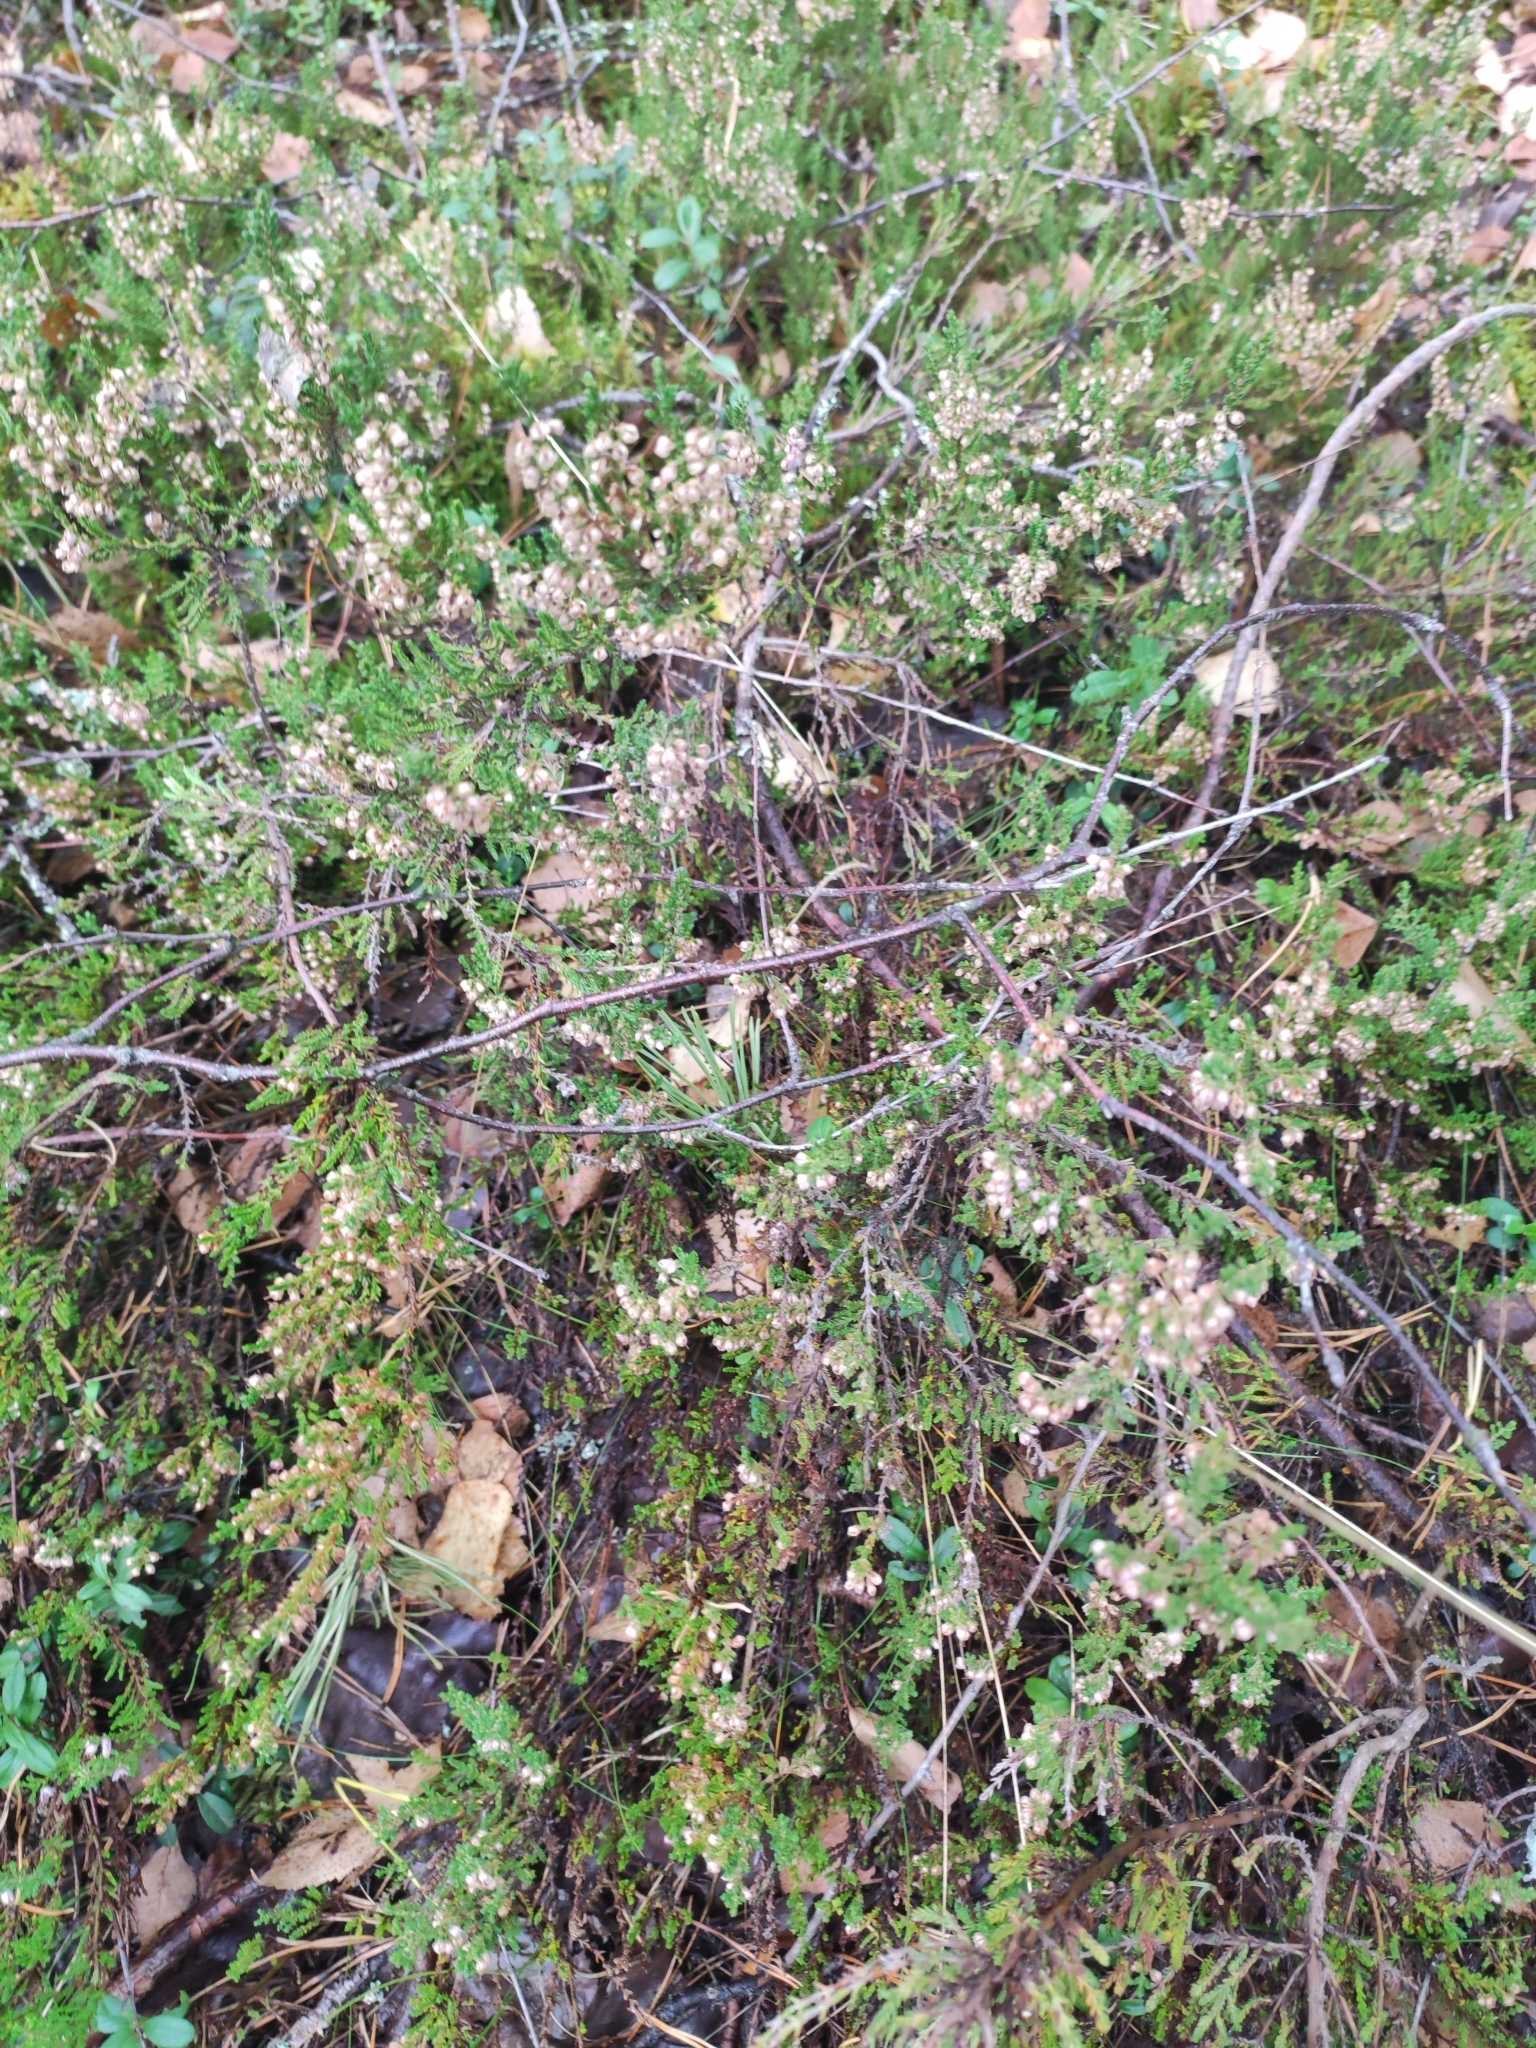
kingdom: Plantae
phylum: Tracheophyta
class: Magnoliopsida
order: Ericales
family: Ericaceae
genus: Calluna
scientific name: Calluna vulgaris
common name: Heather
